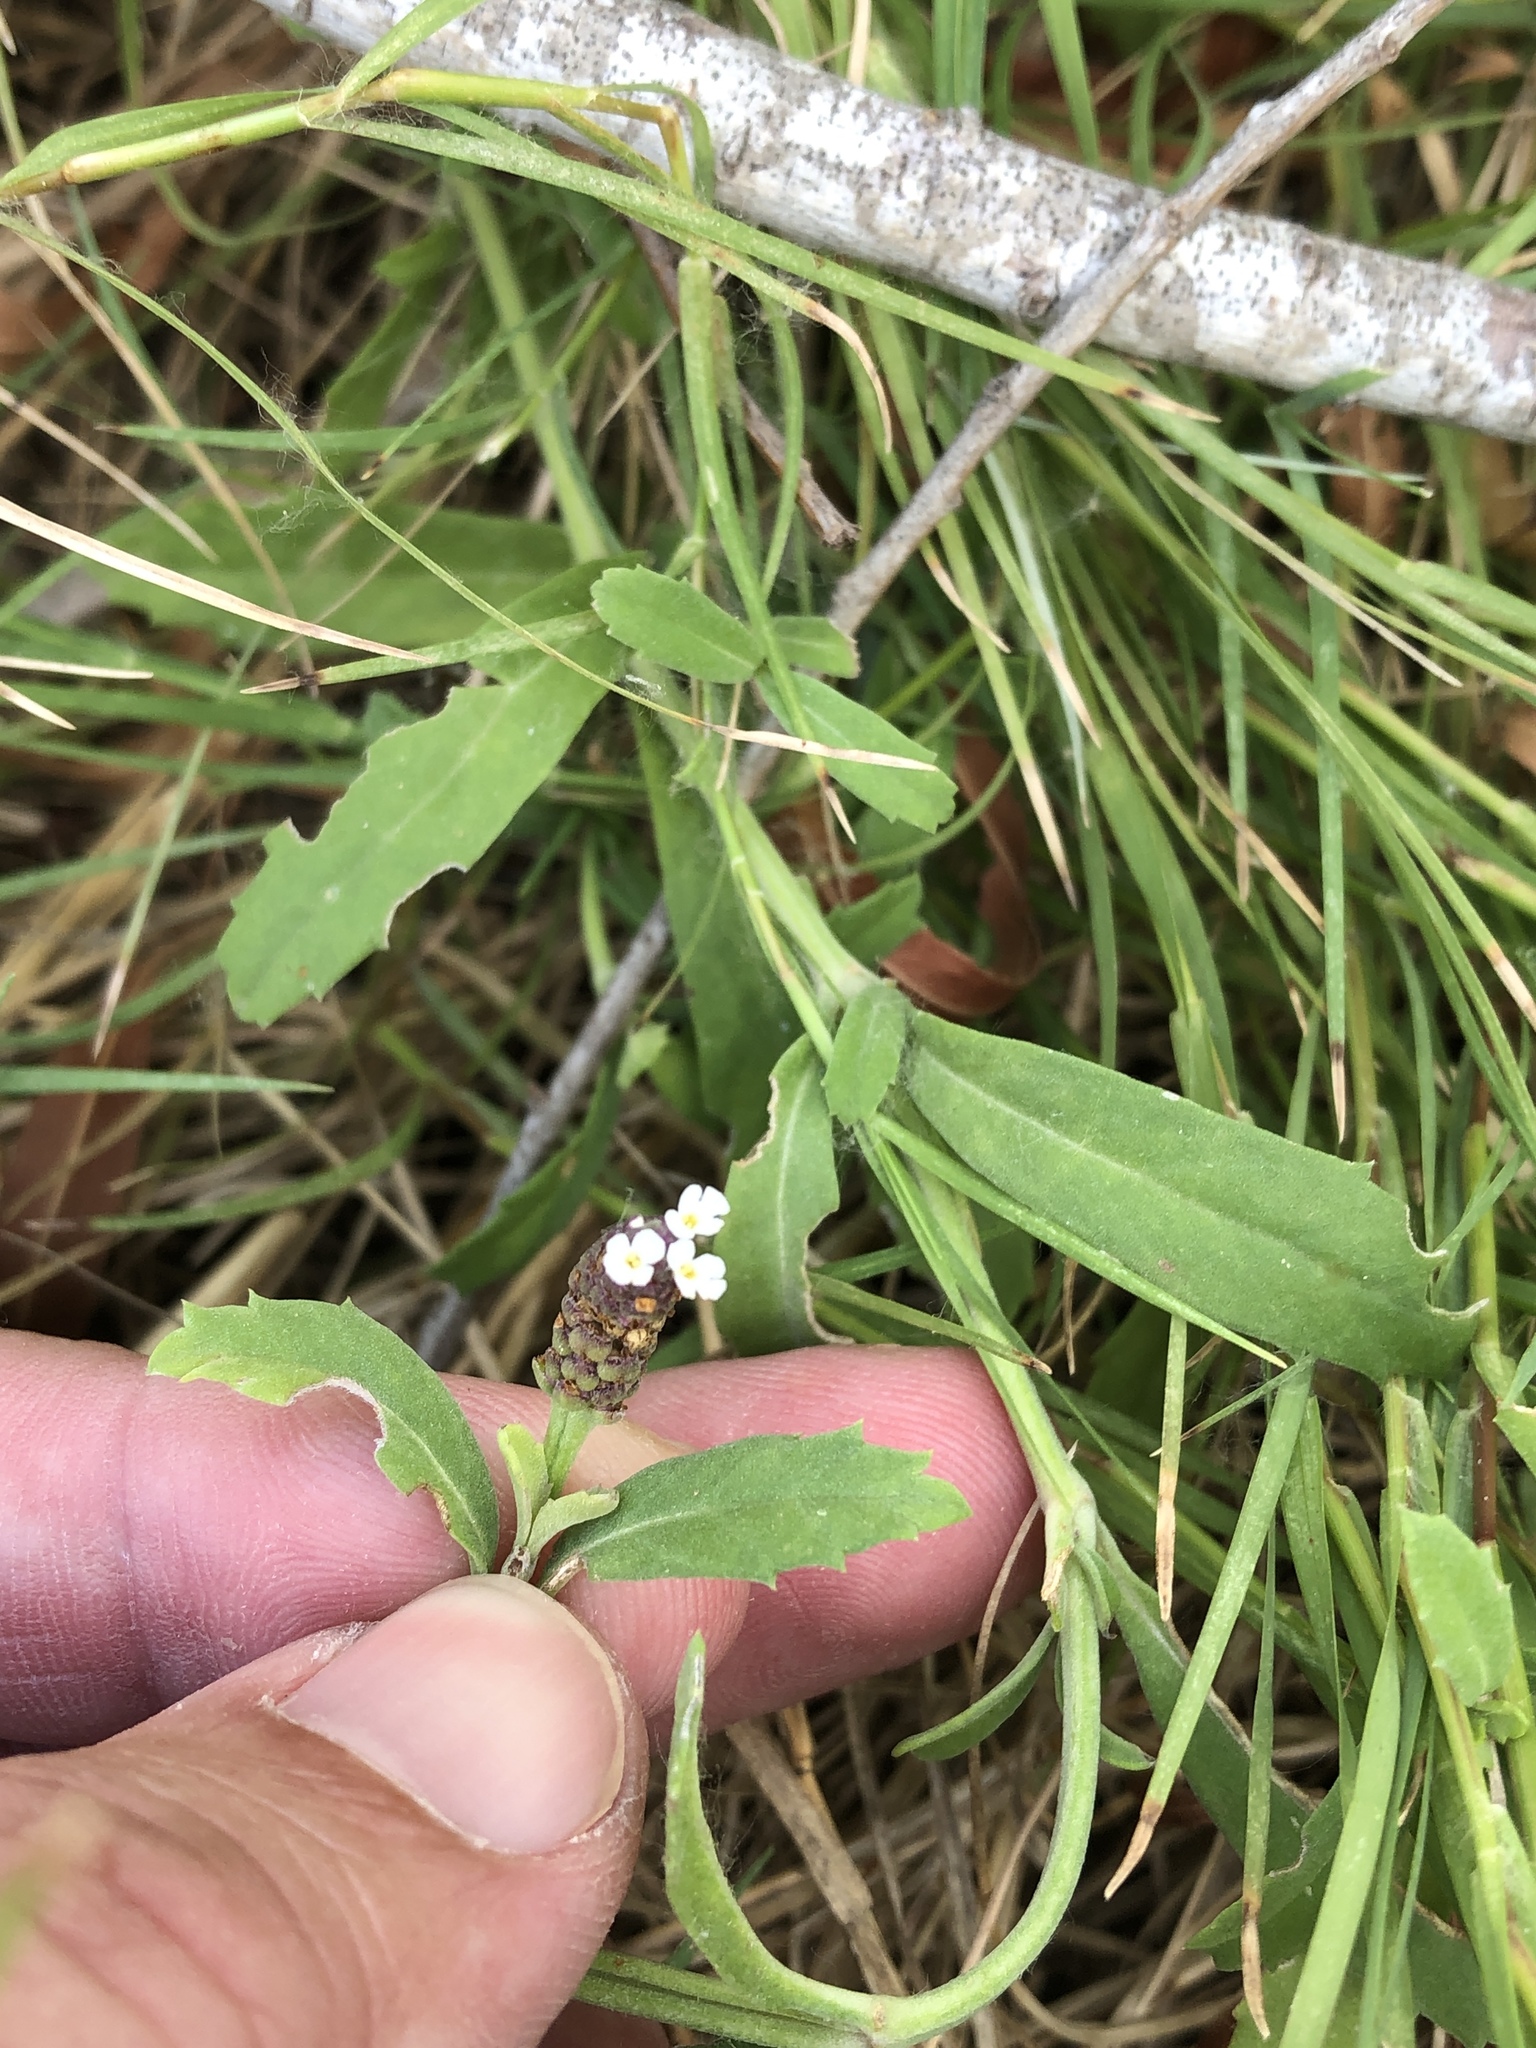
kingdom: Plantae
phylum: Tracheophyta
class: Magnoliopsida
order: Lamiales
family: Verbenaceae
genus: Phyla
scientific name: Phyla nodiflora
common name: Frogfruit
